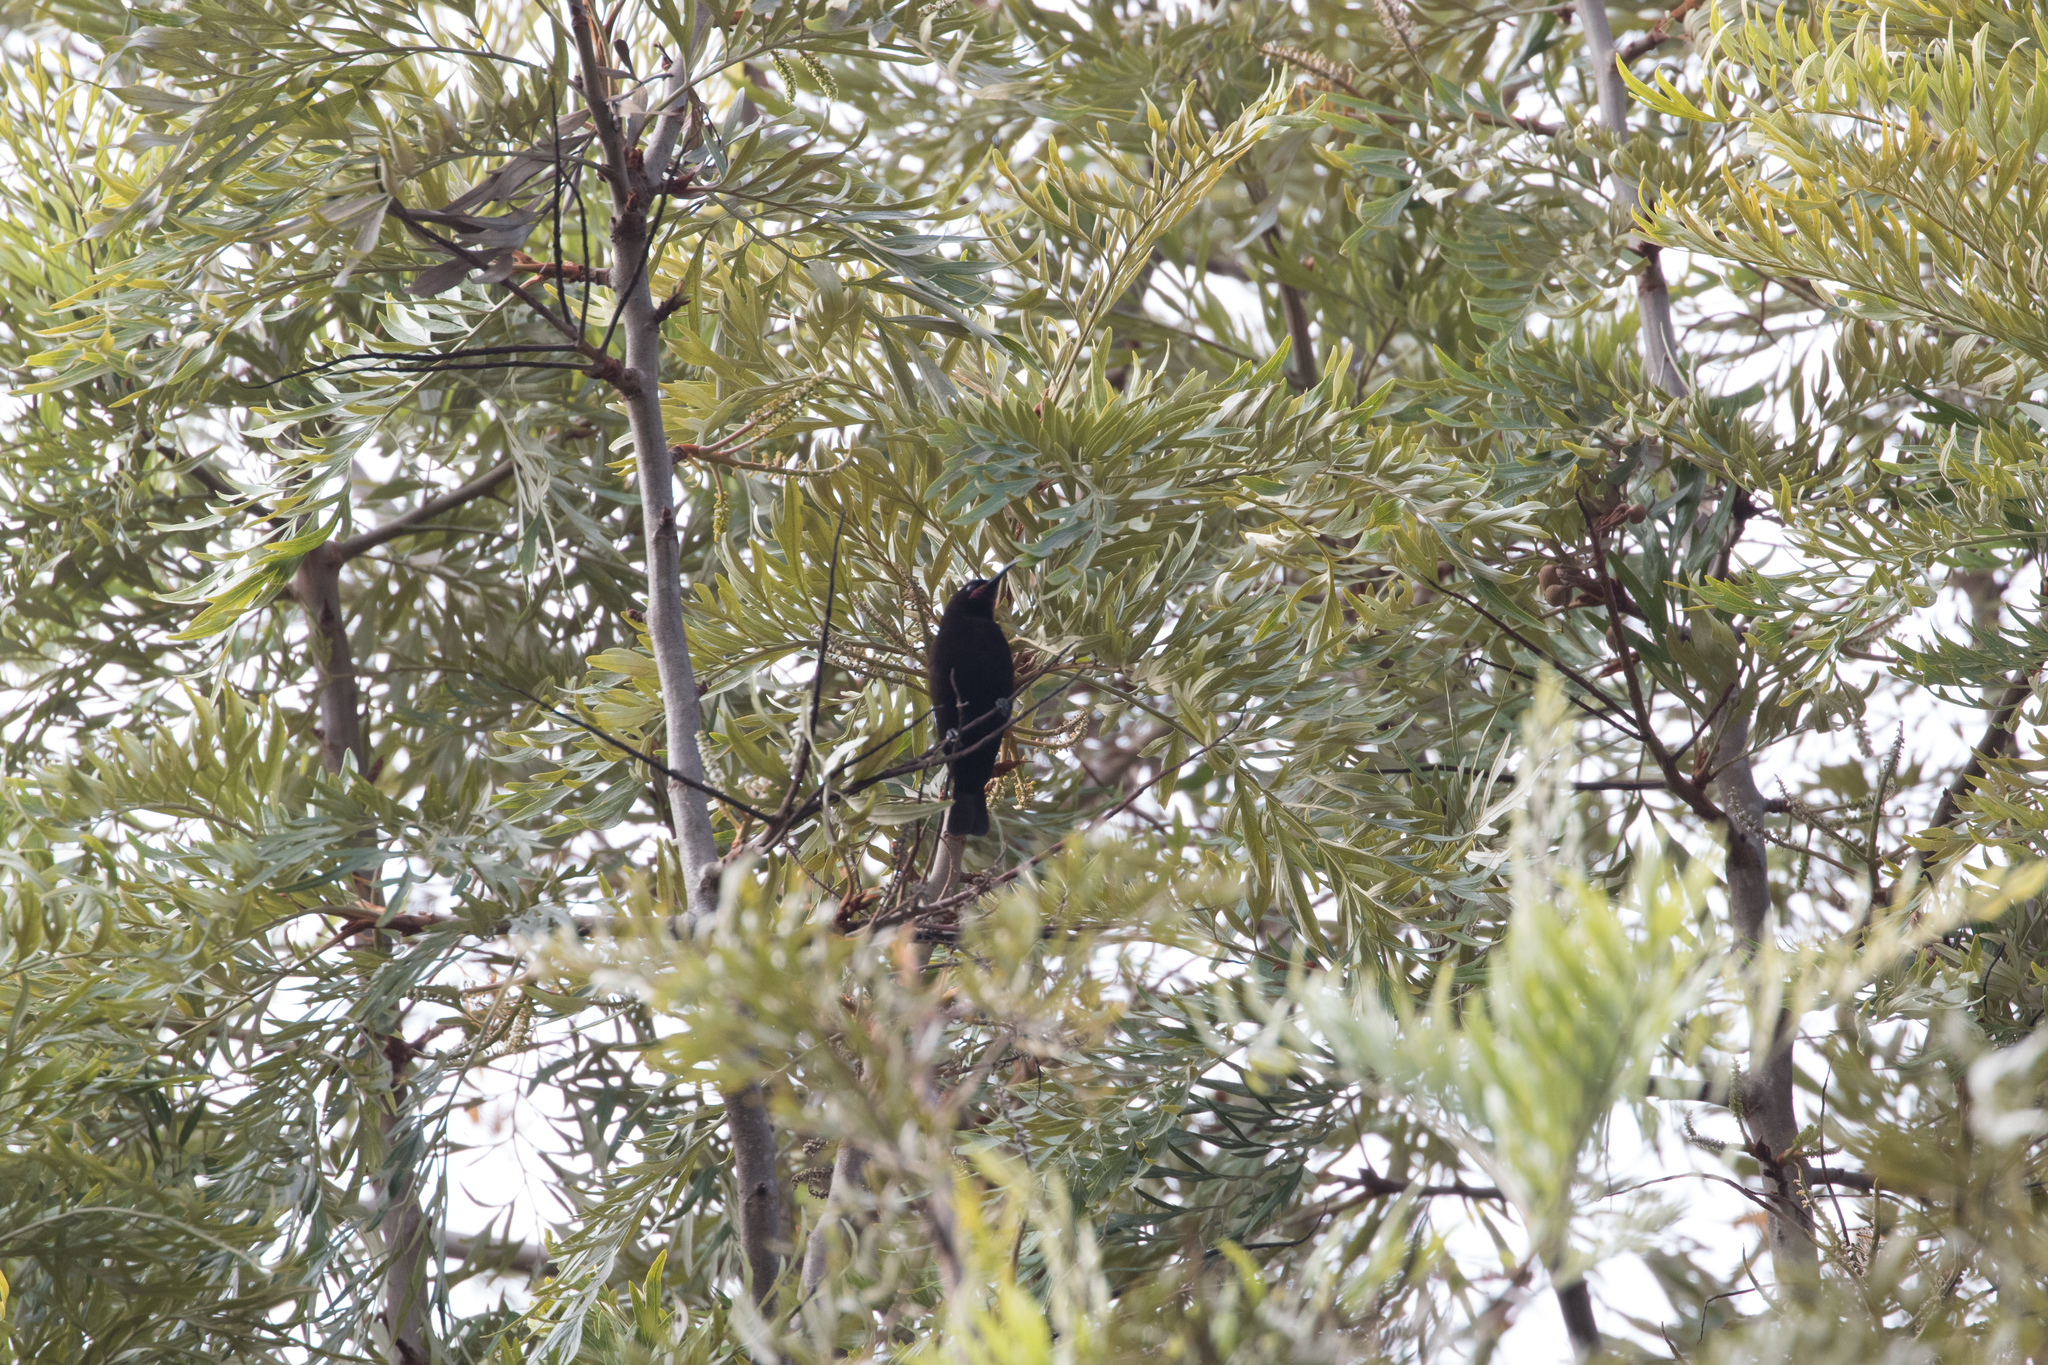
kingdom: Animalia
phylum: Chordata
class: Aves
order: Passeriformes
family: Nectariniidae
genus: Chalcomitra
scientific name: Chalcomitra amethystina
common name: Amethyst sunbird
